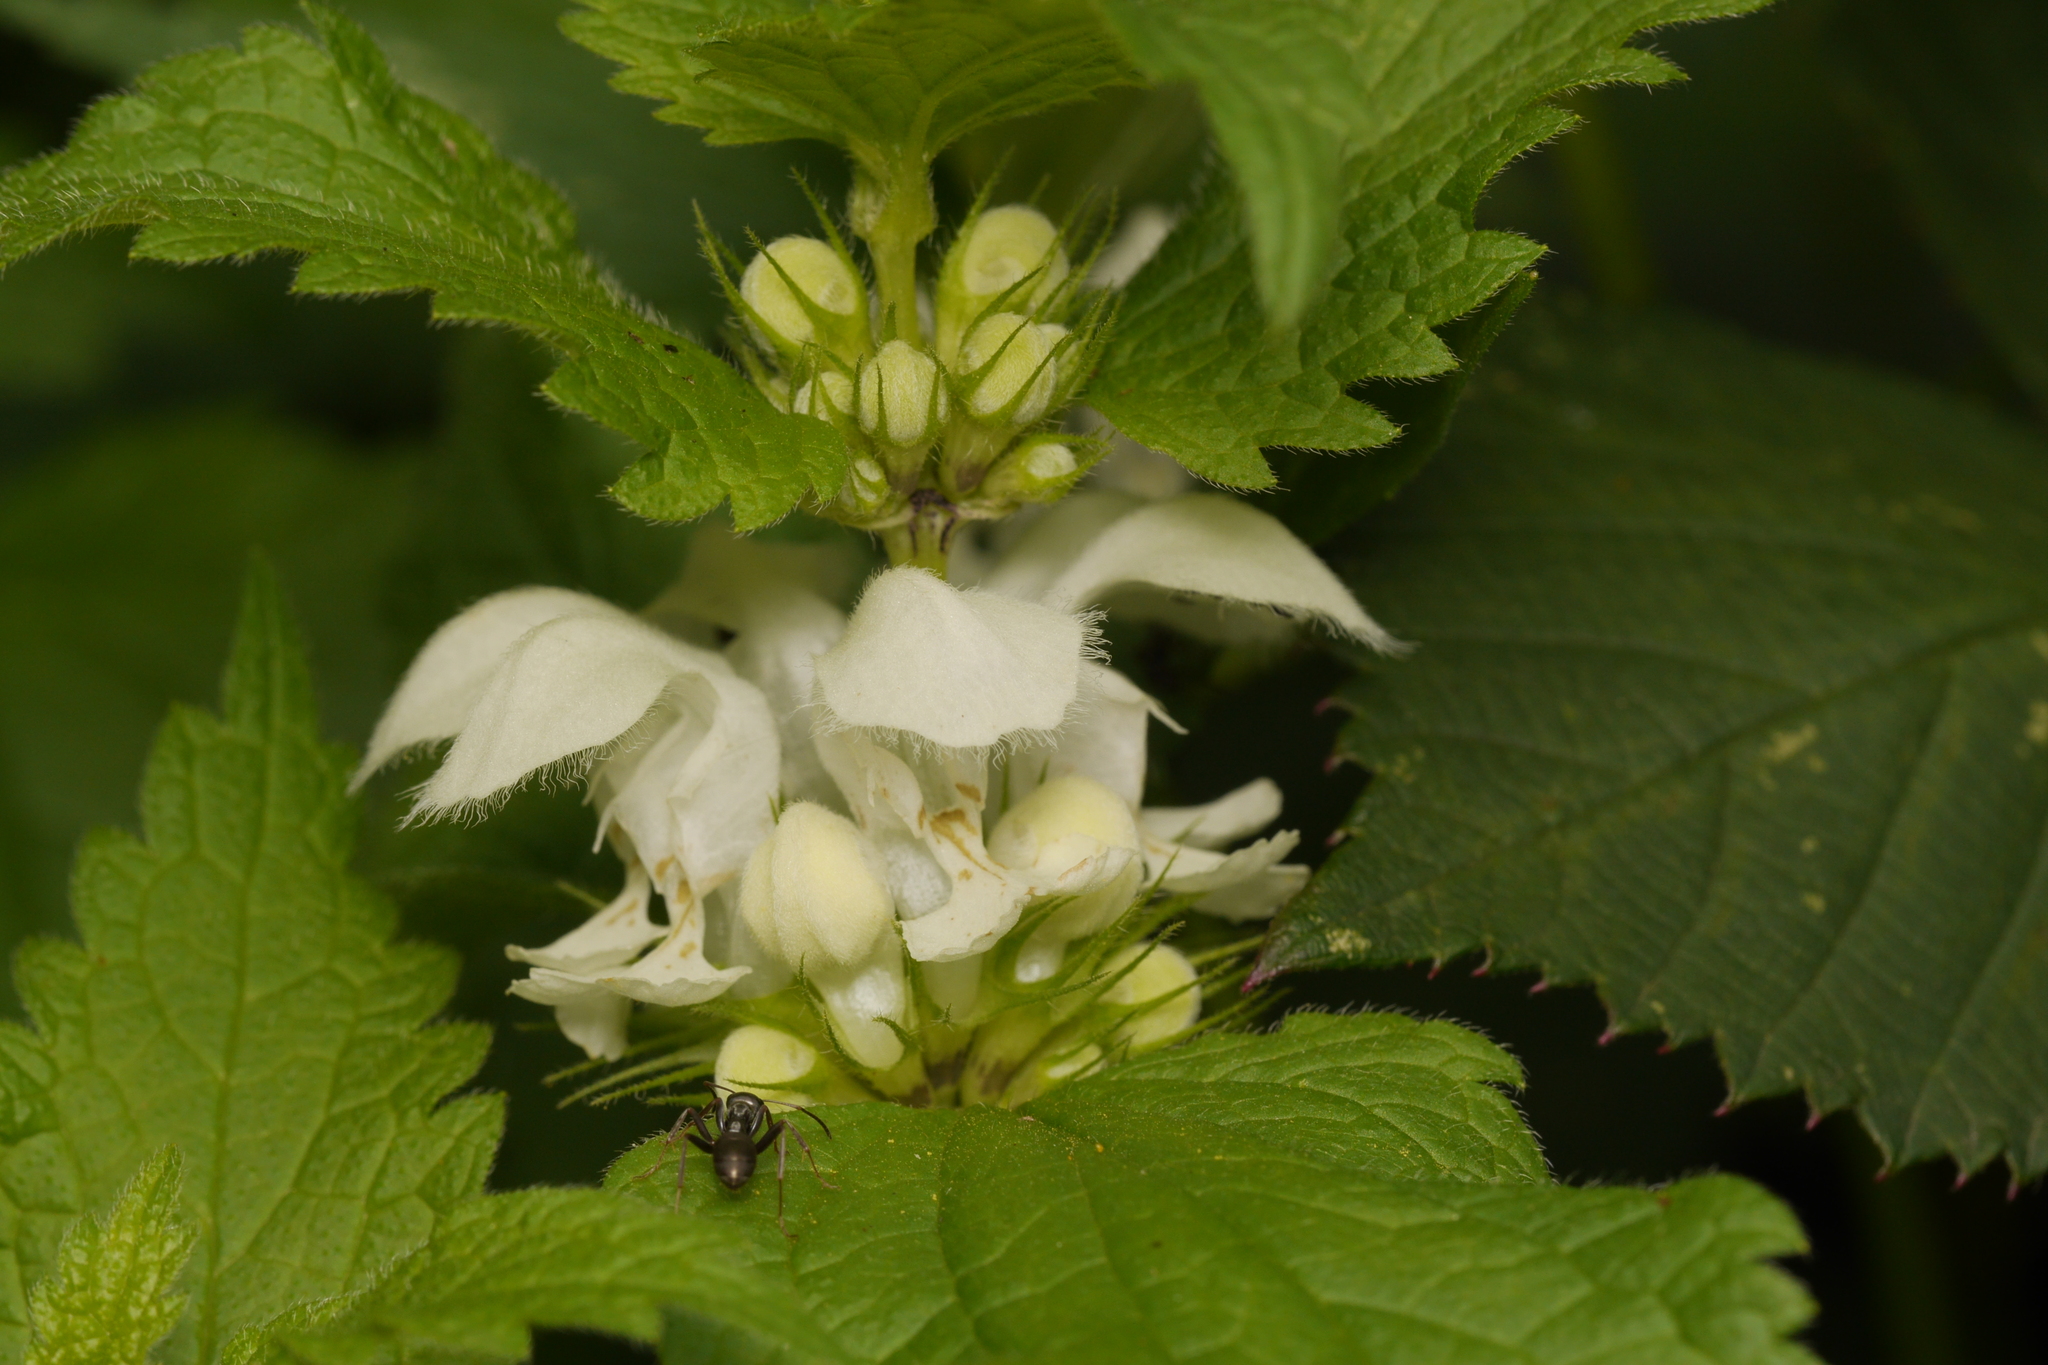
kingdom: Plantae
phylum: Tracheophyta
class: Magnoliopsida
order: Lamiales
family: Lamiaceae
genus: Lamium
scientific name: Lamium album
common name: White dead-nettle
